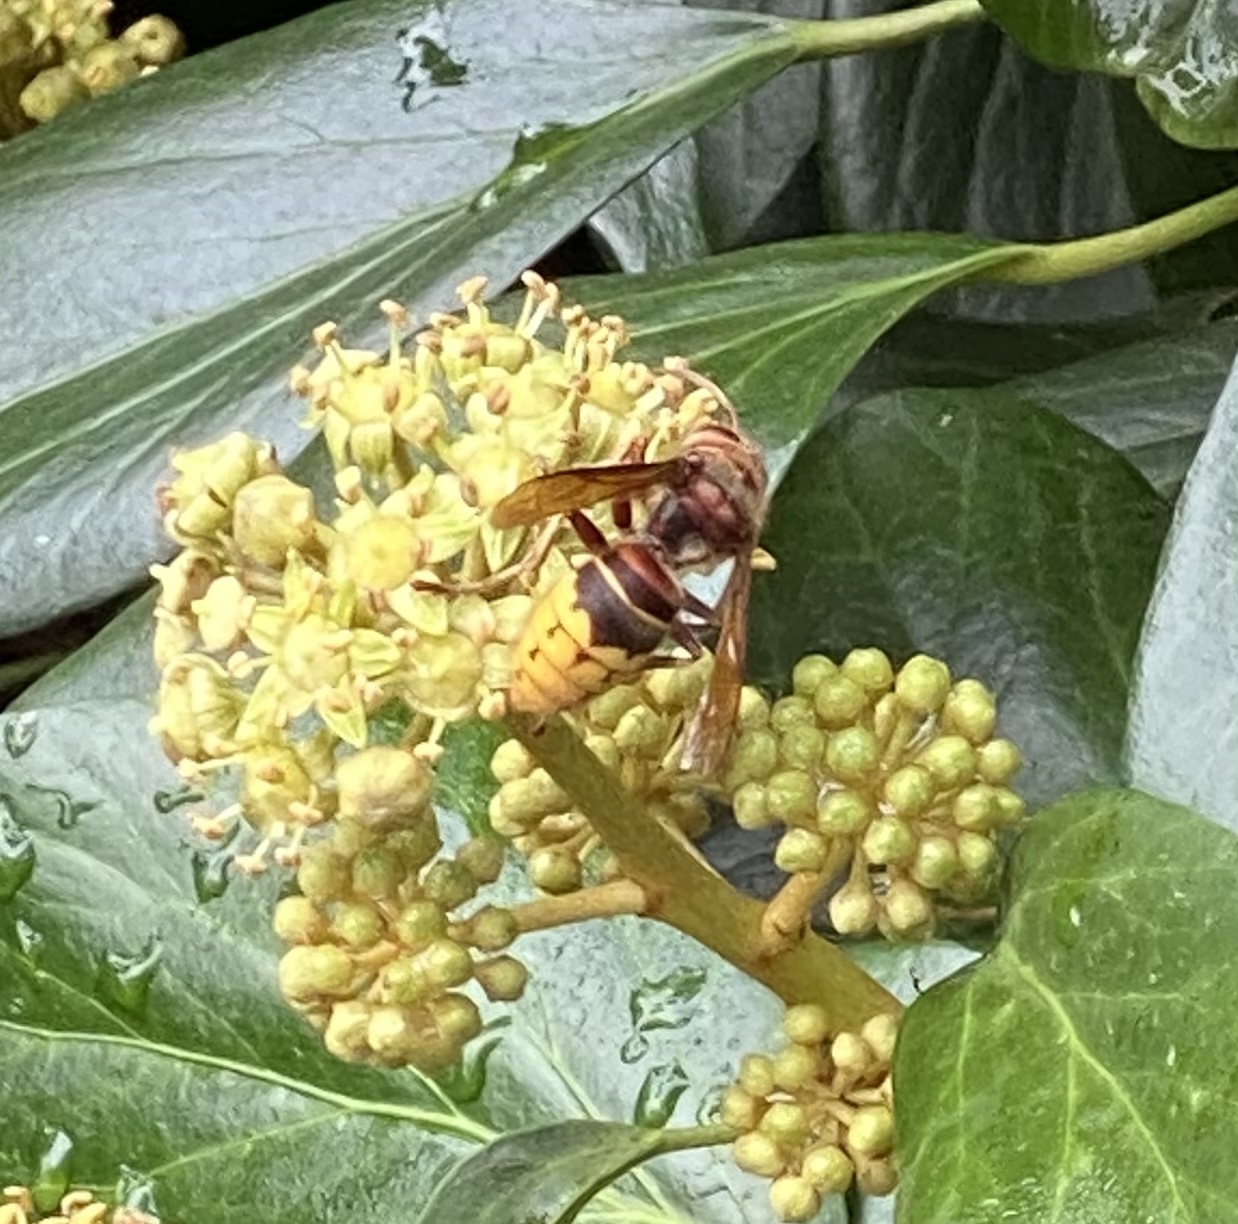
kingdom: Animalia
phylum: Arthropoda
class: Insecta
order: Hymenoptera
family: Vespidae
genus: Vespa
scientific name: Vespa crabro
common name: Hornet
